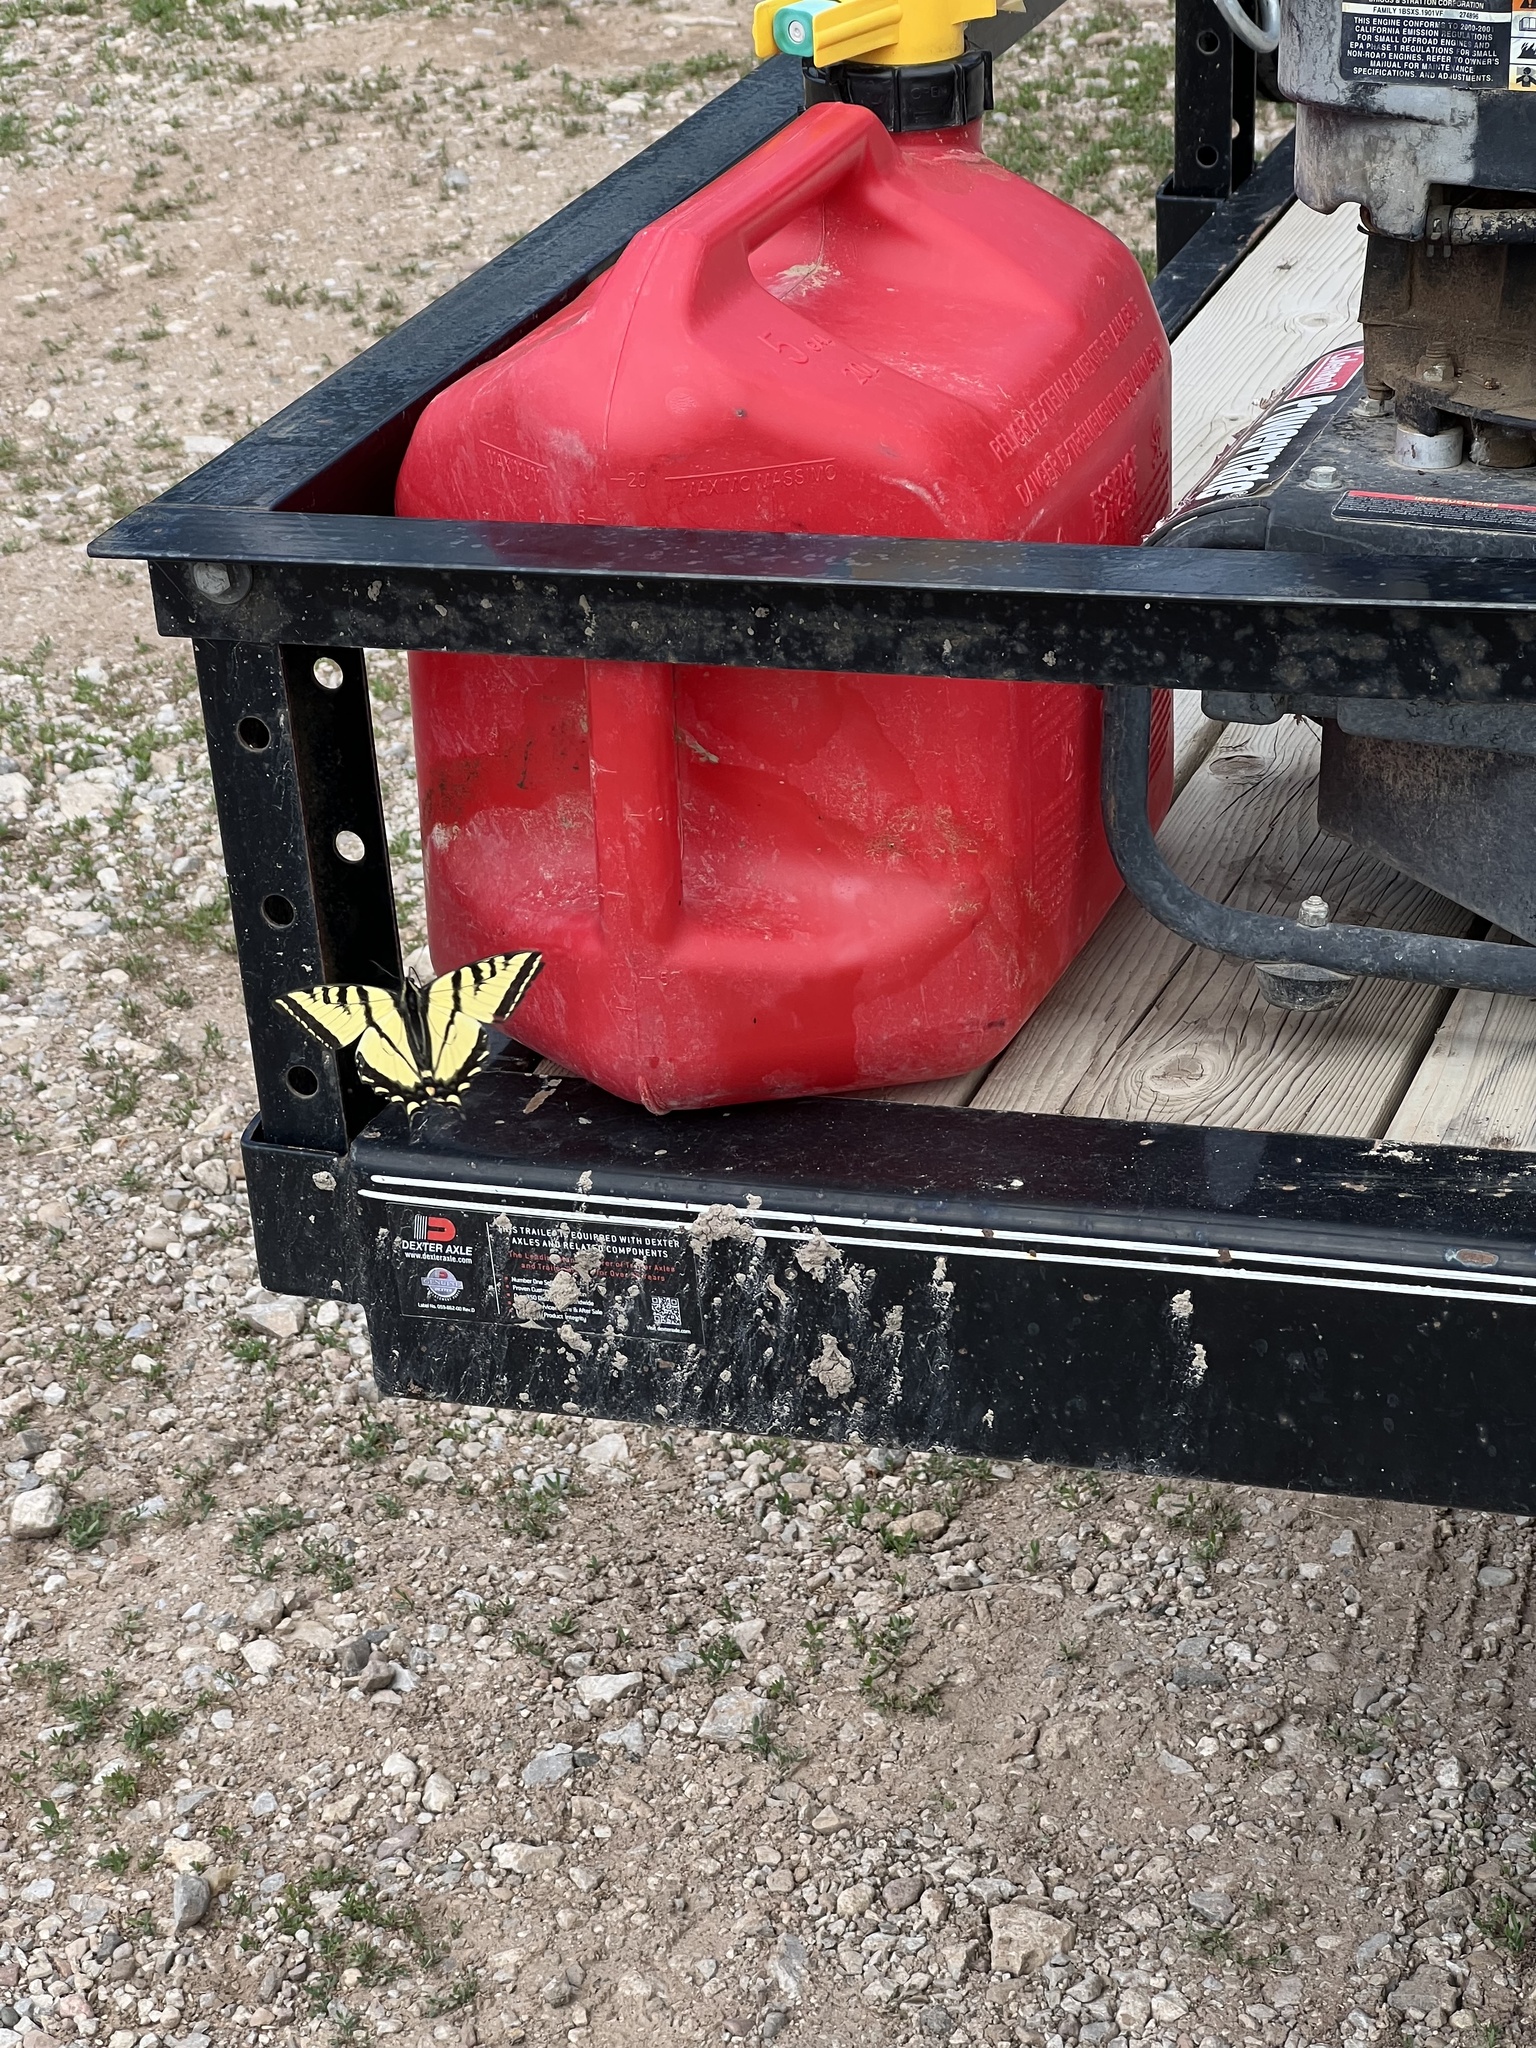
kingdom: Animalia
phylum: Arthropoda
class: Insecta
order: Lepidoptera
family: Papilionidae
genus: Papilio
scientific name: Papilio rutulus
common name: Western tiger swallowtail
